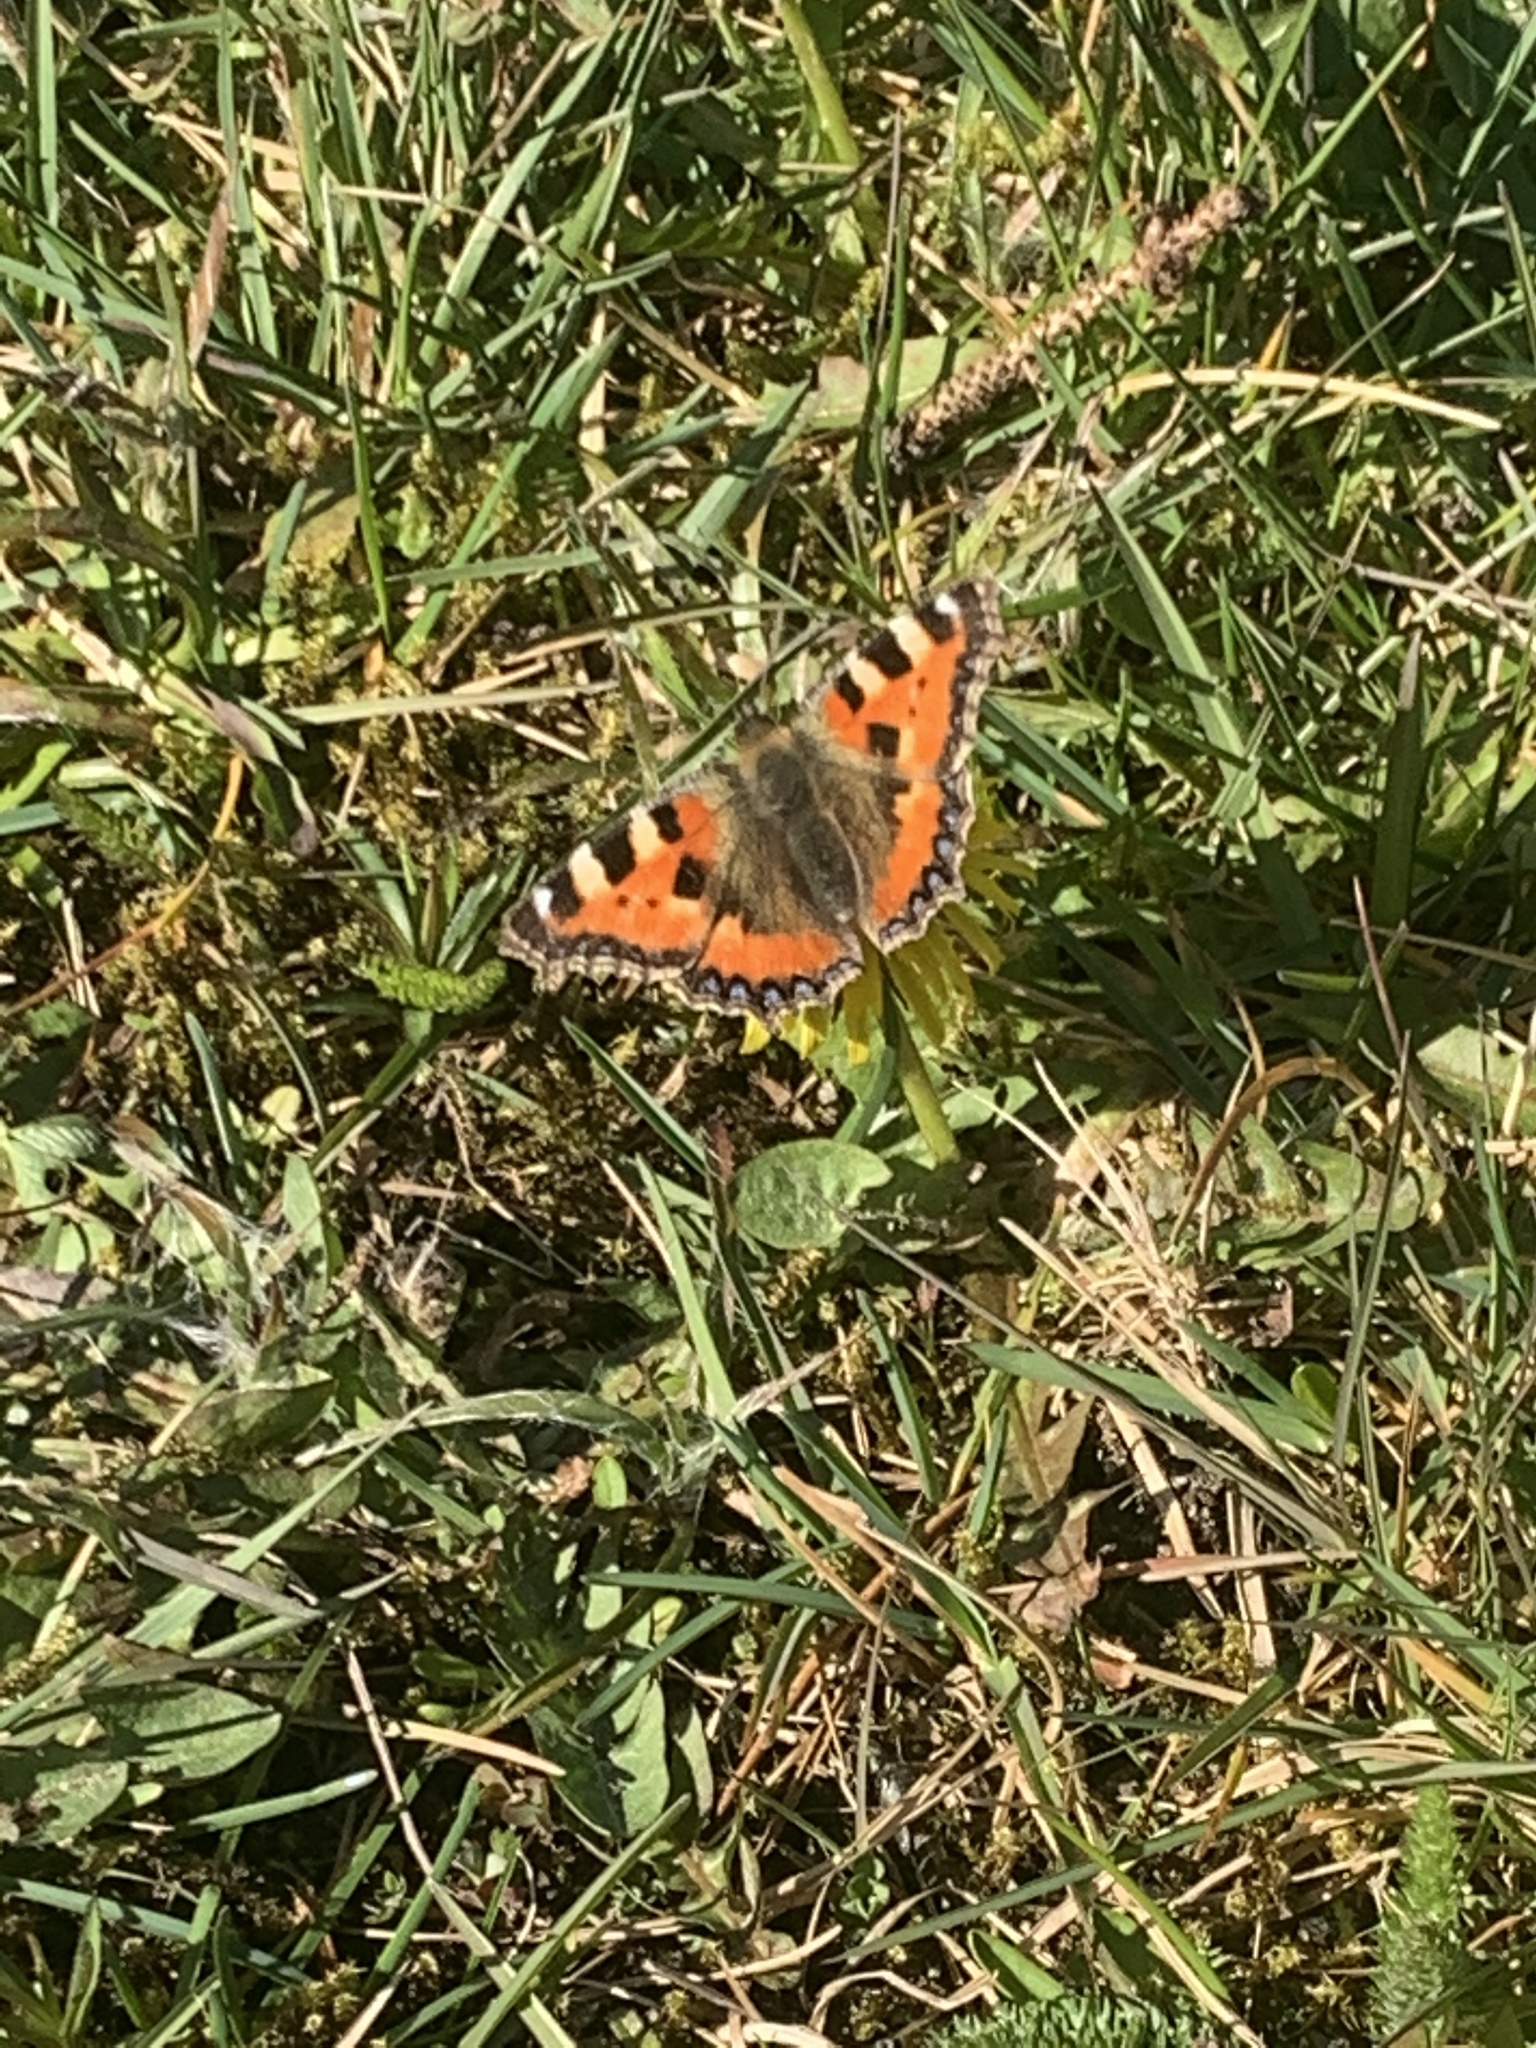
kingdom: Animalia
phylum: Arthropoda
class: Insecta
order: Lepidoptera
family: Nymphalidae
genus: Aglais
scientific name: Aglais urticae
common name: Small tortoiseshell
